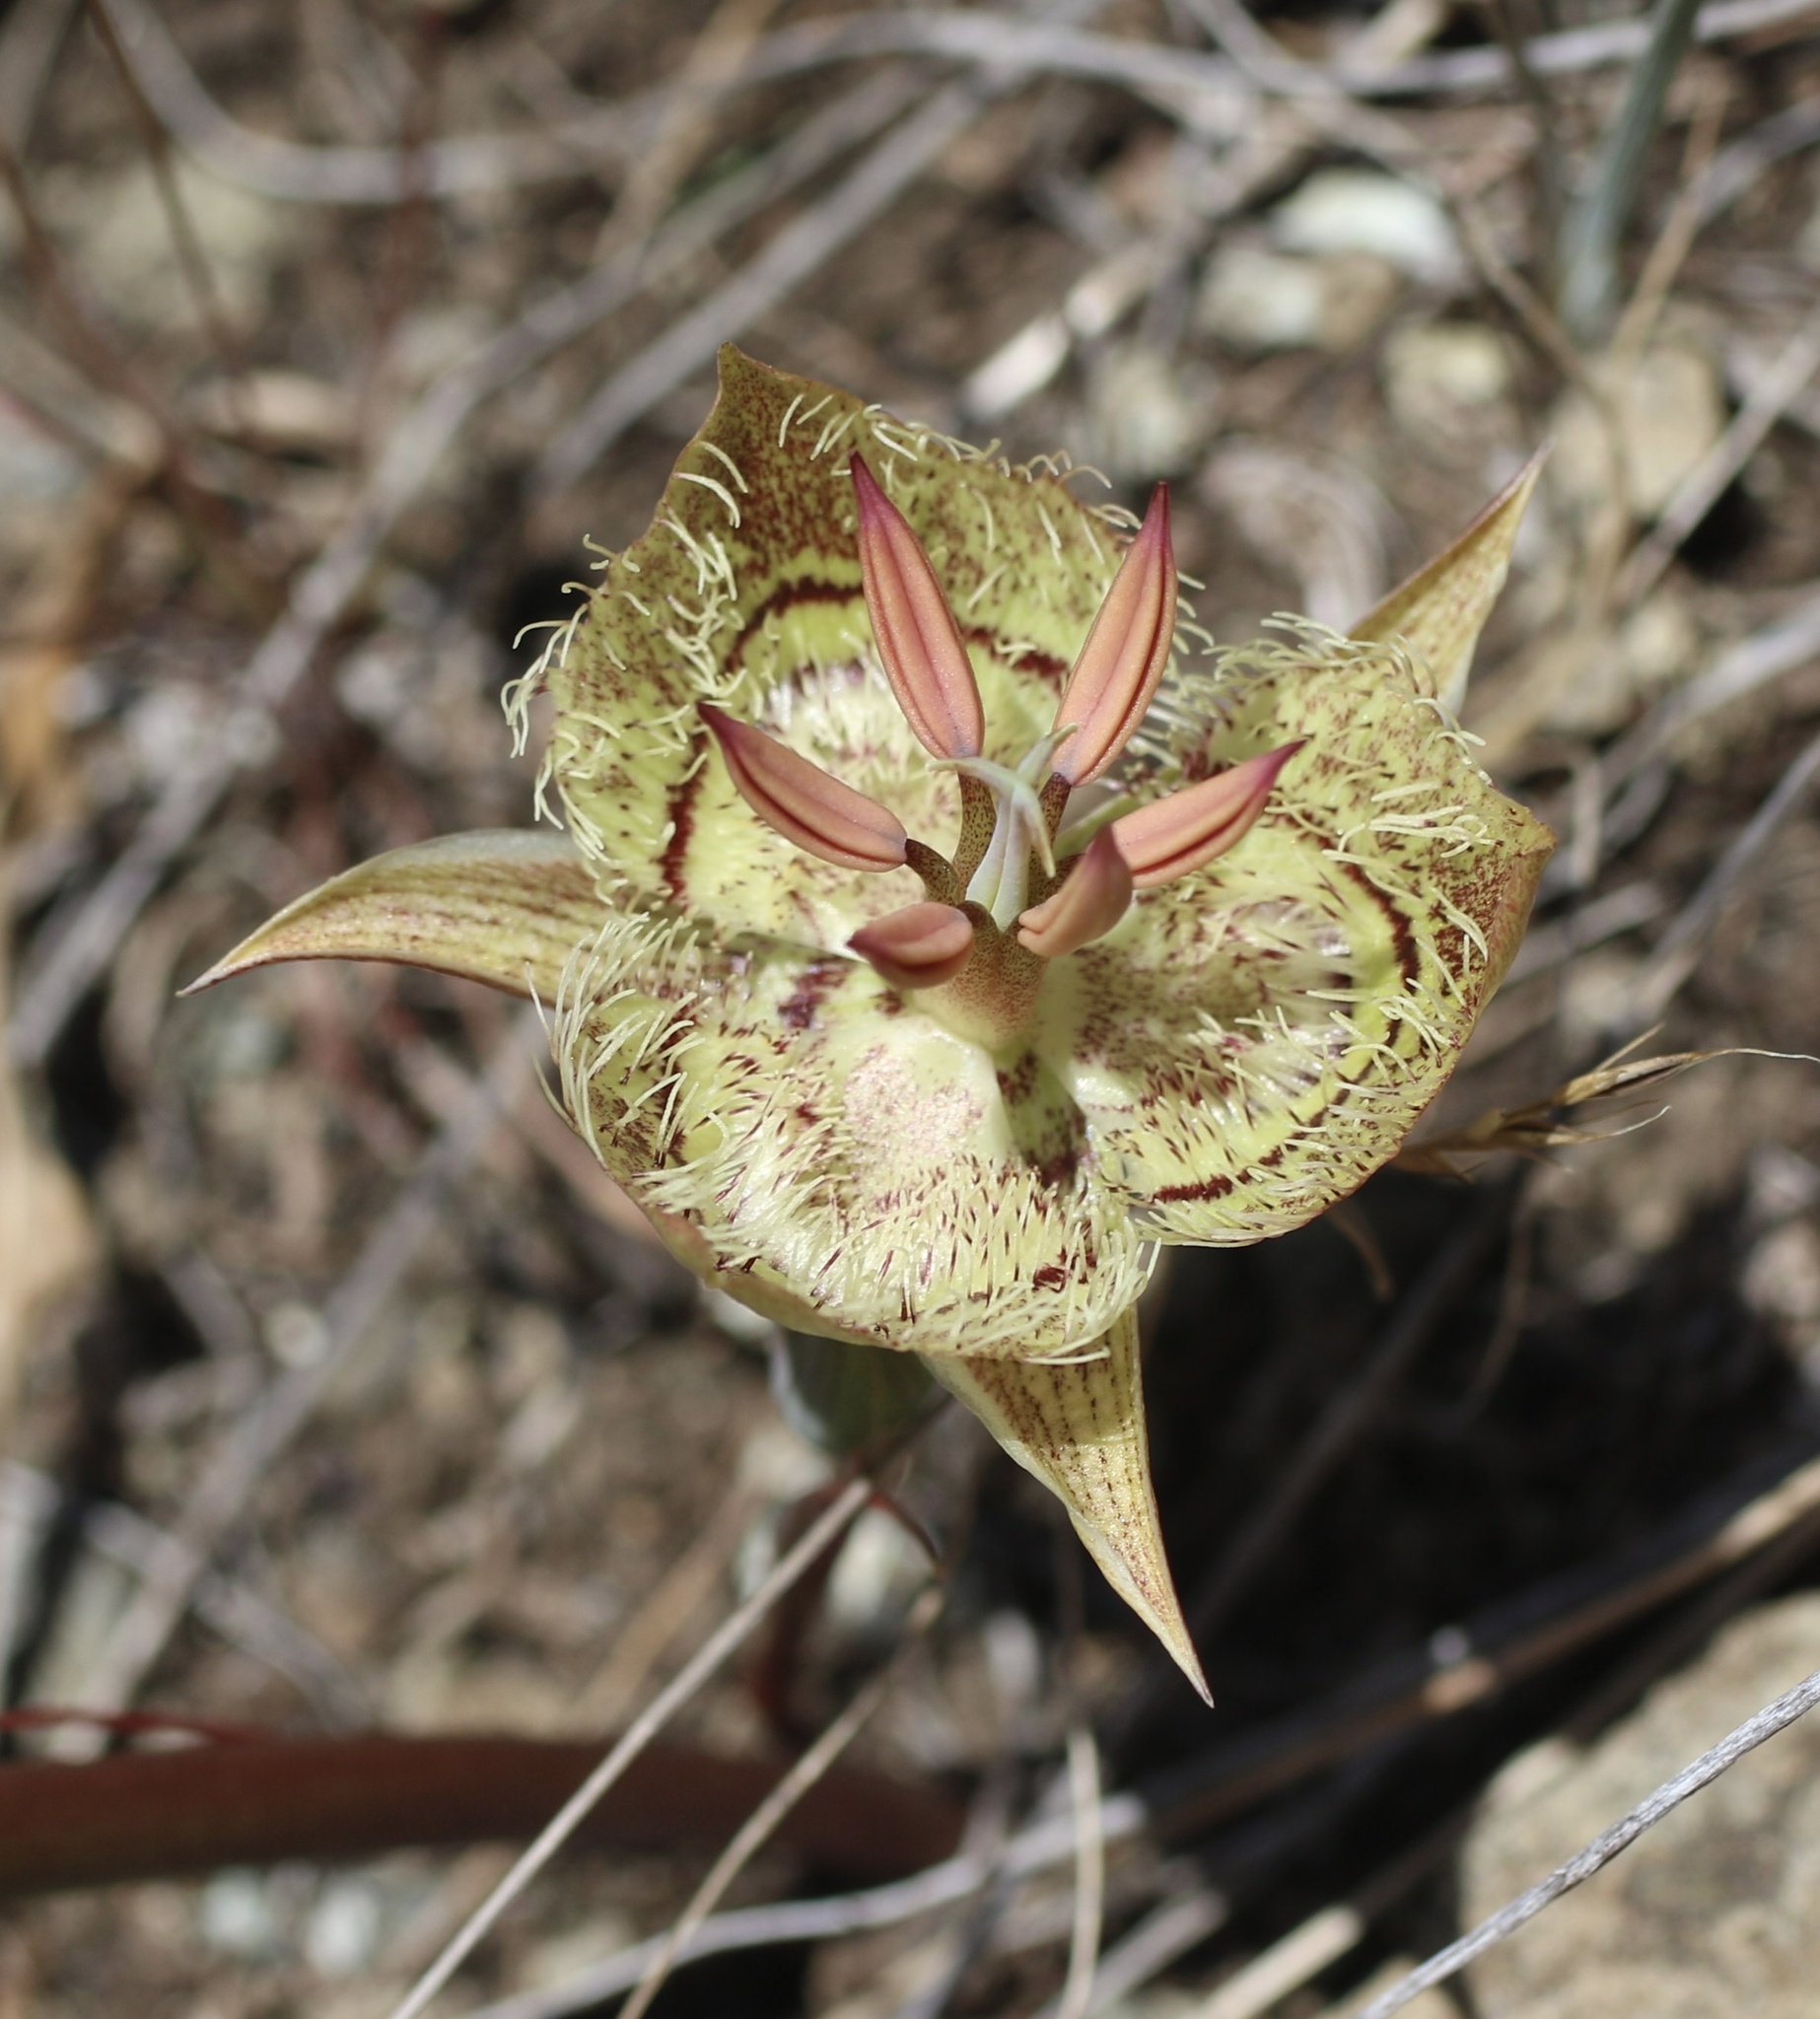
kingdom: Plantae
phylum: Tracheophyta
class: Liliopsida
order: Liliales
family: Liliaceae
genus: Calochortus
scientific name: Calochortus tiburonensis
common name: Tiburon mariposa-lily
